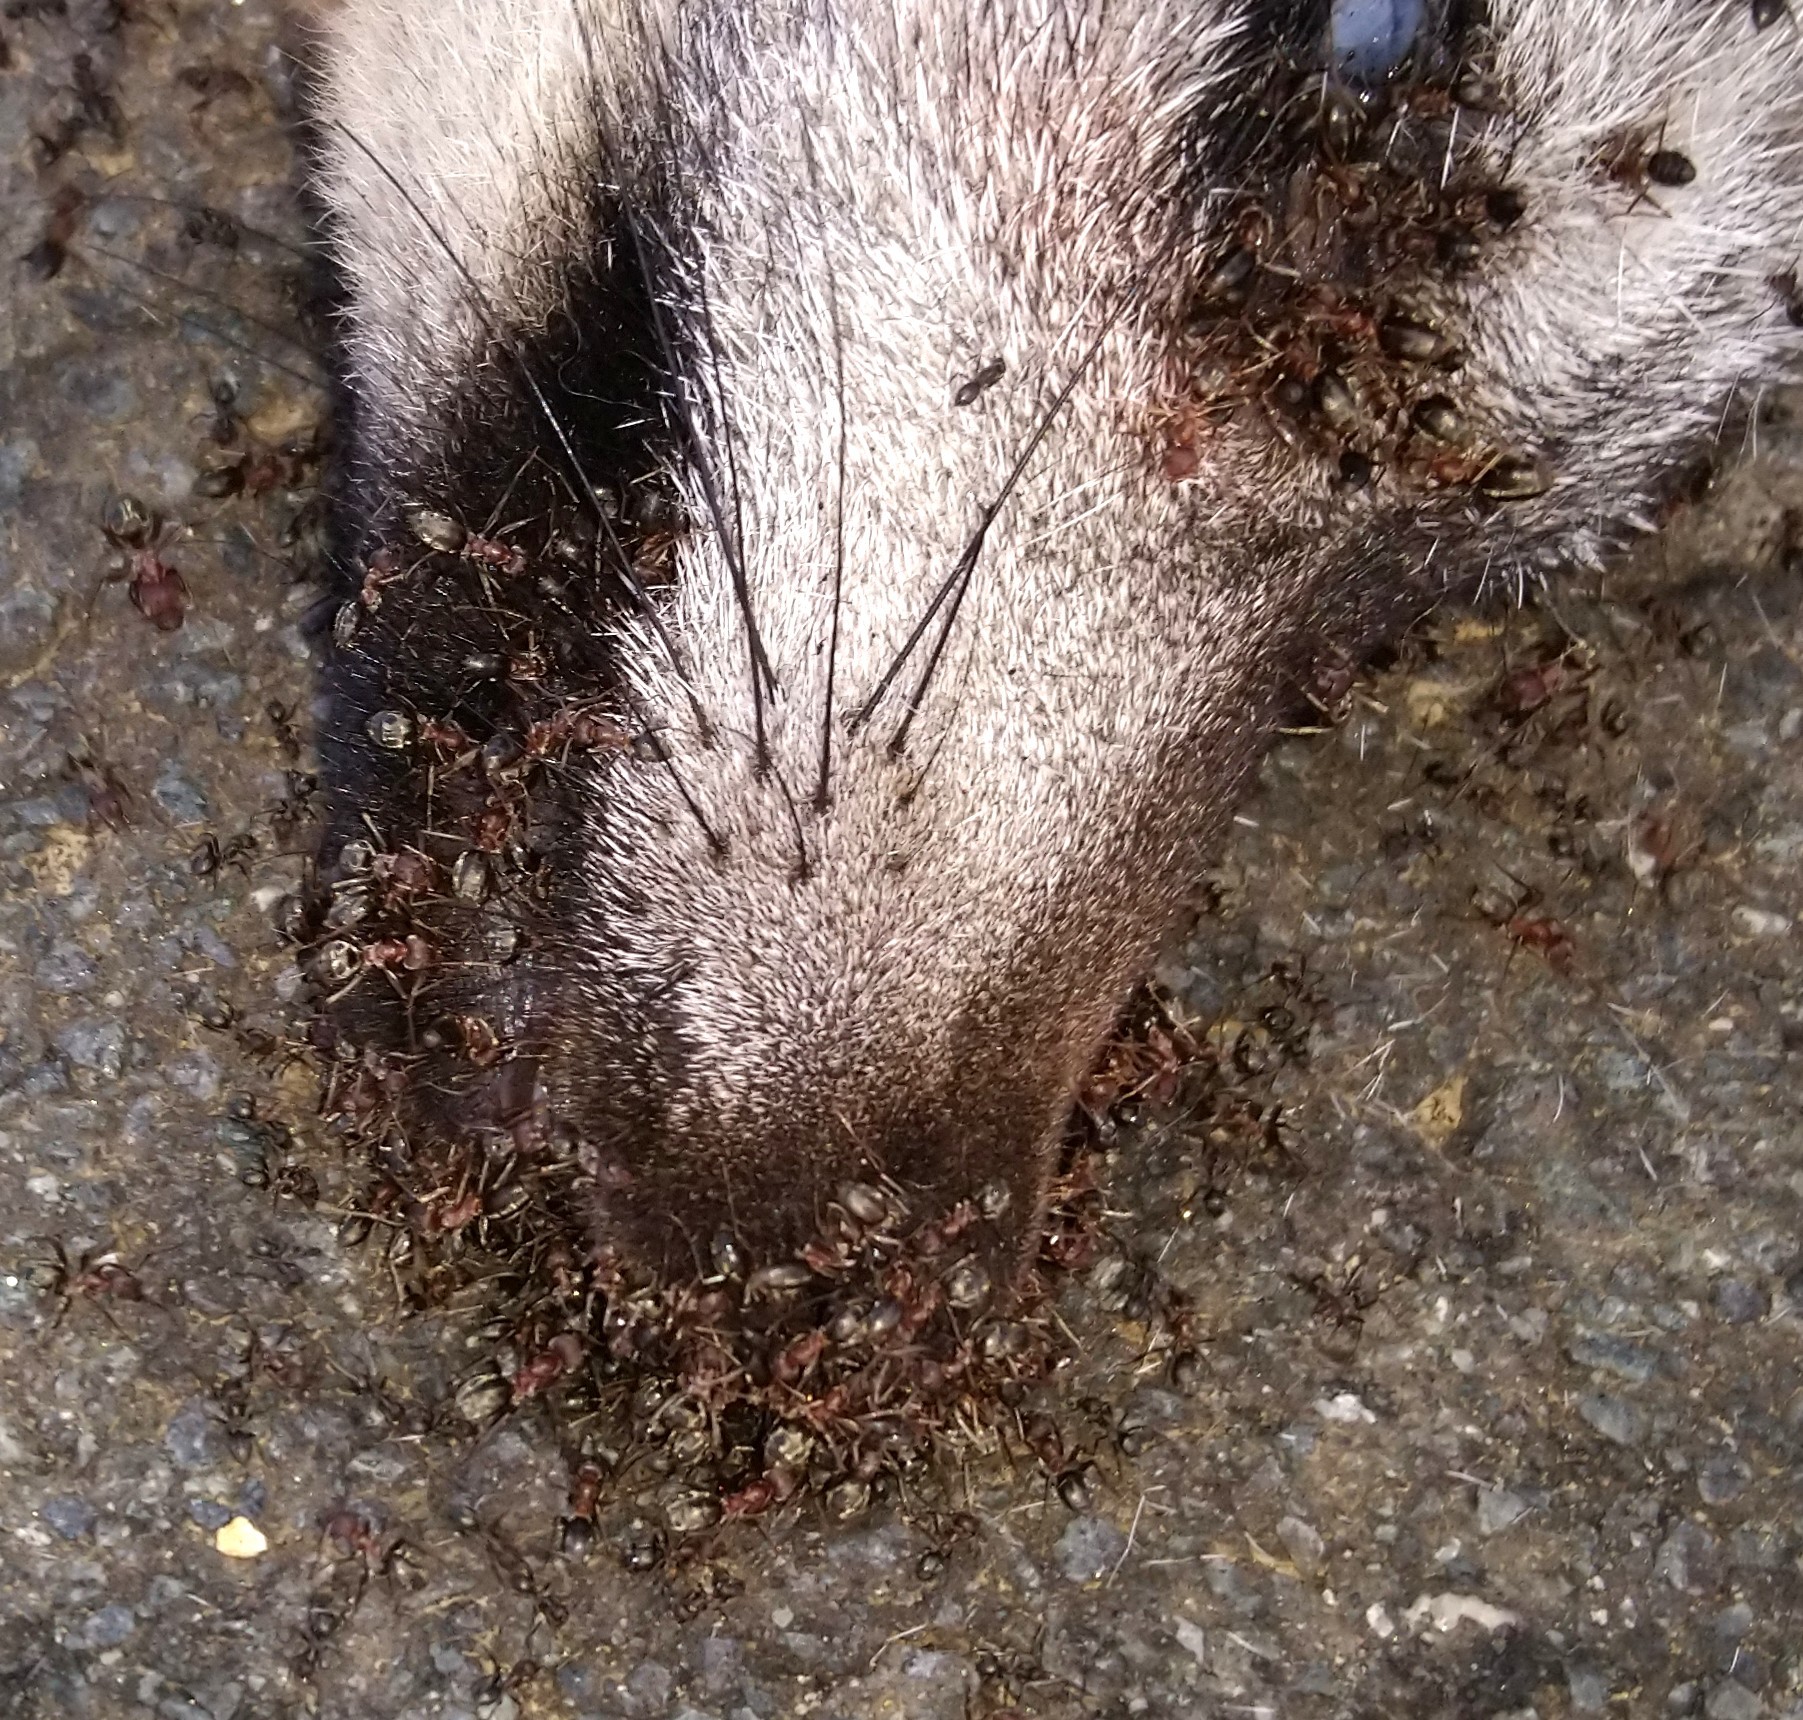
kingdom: Animalia
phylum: Arthropoda
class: Insecta
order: Hymenoptera
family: Formicidae
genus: Anoplolepis
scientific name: Anoplolepis custodiens
